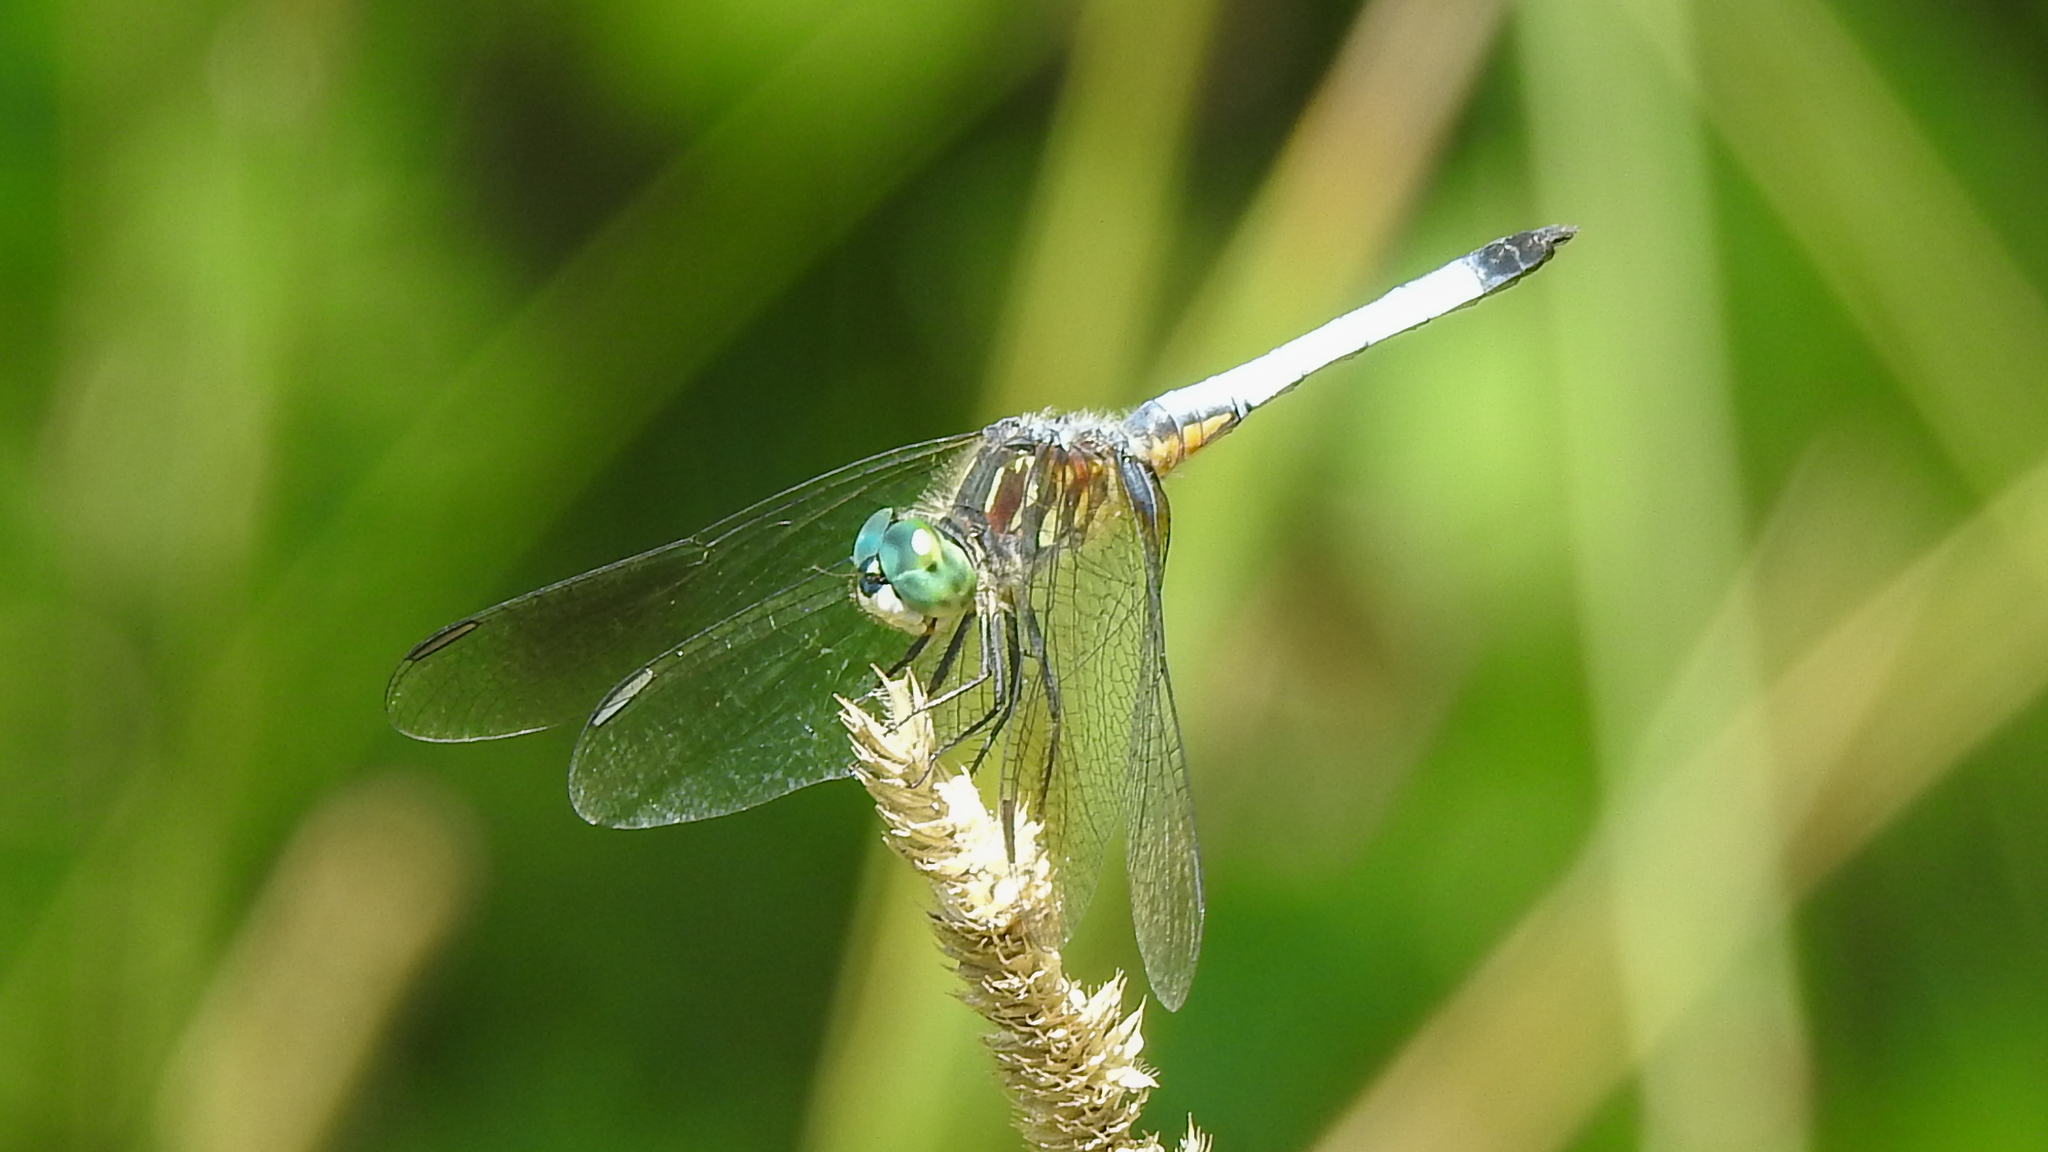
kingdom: Animalia
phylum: Arthropoda
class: Insecta
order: Odonata
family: Libellulidae
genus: Pachydiplax
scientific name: Pachydiplax longipennis
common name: Blue dasher
